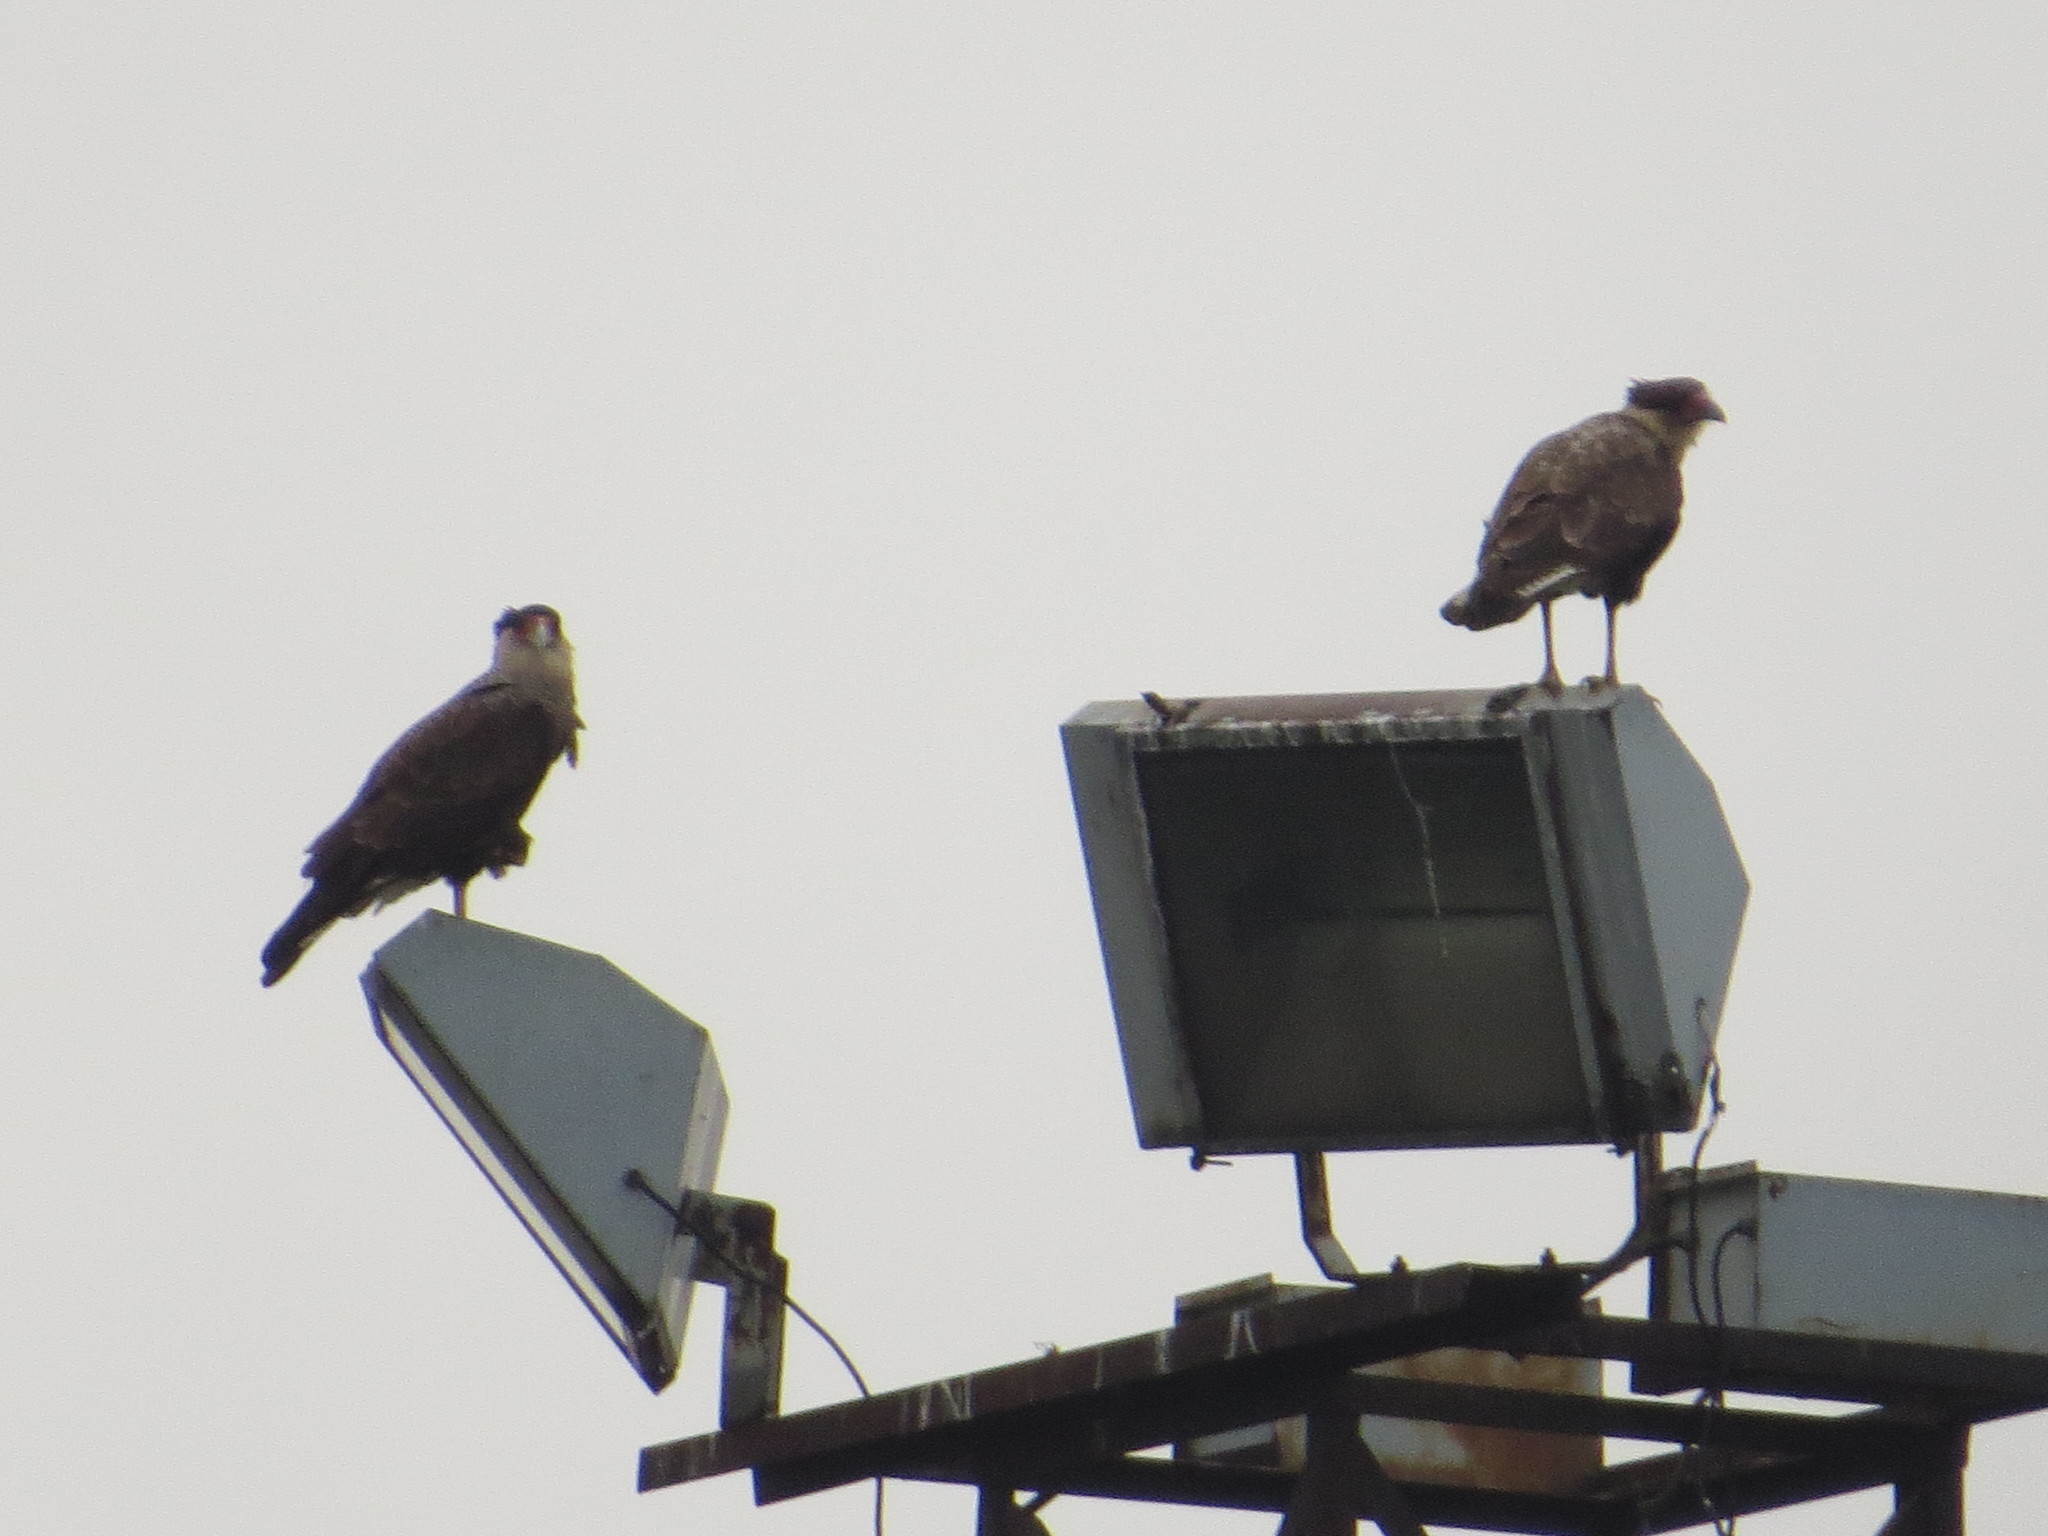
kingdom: Animalia
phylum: Chordata
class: Aves
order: Falconiformes
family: Falconidae
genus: Caracara
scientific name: Caracara plancus
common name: Southern caracara
